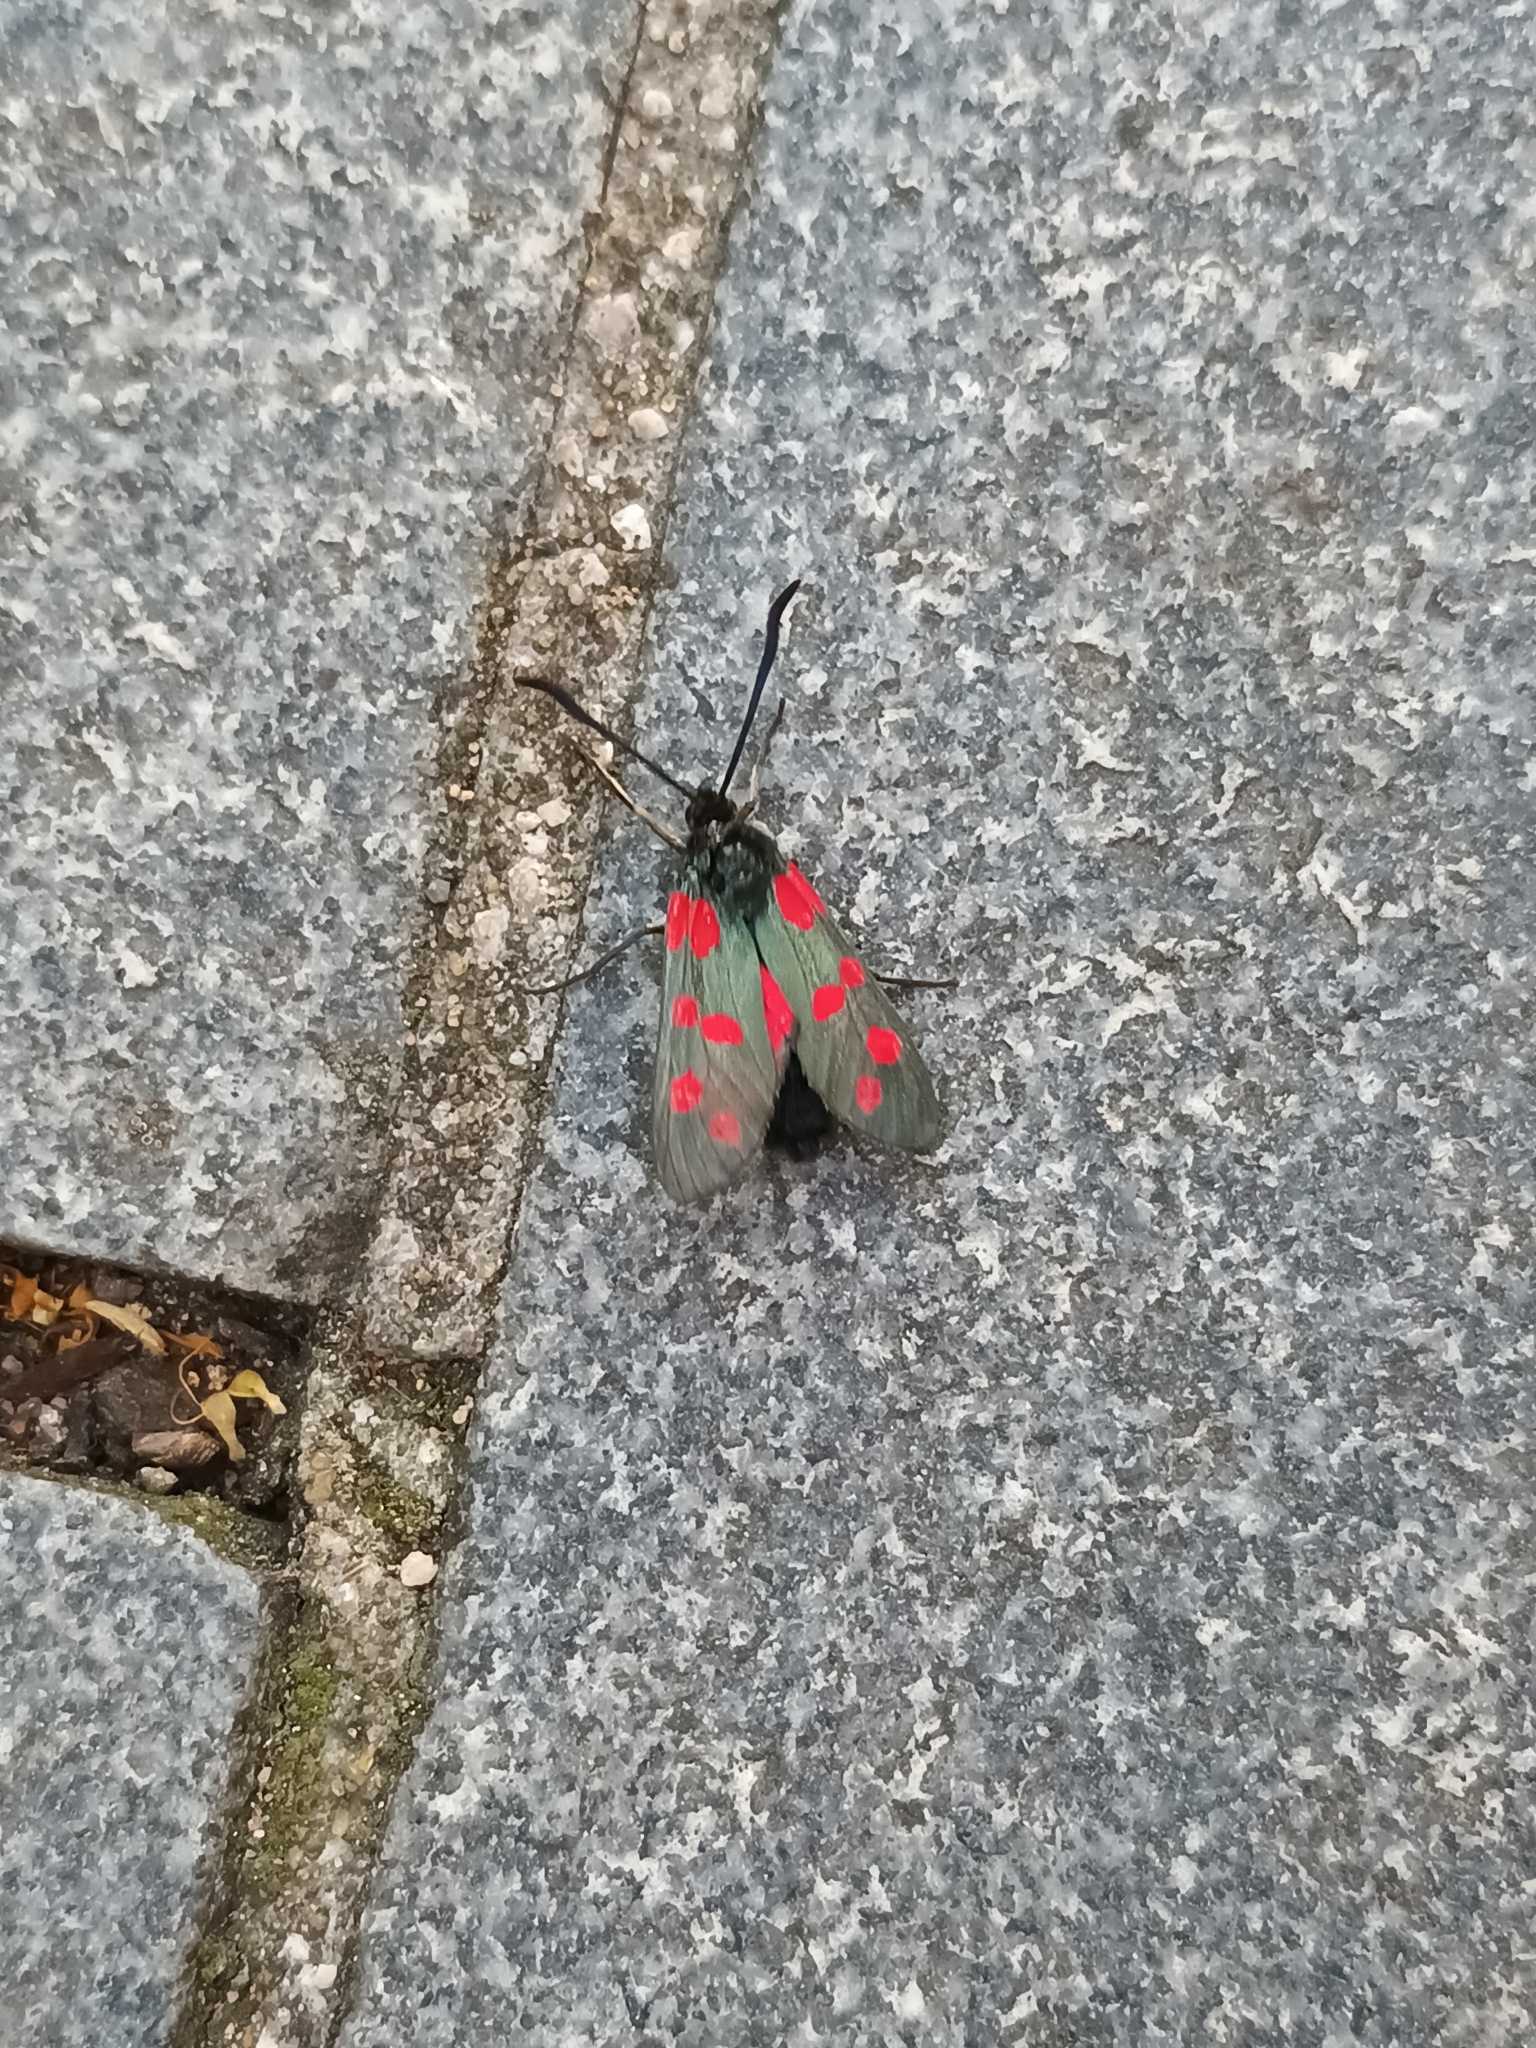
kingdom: Animalia
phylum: Arthropoda
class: Insecta
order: Lepidoptera
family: Zygaenidae
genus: Zygaena
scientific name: Zygaena filipendulae
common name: Six-spot burnet
